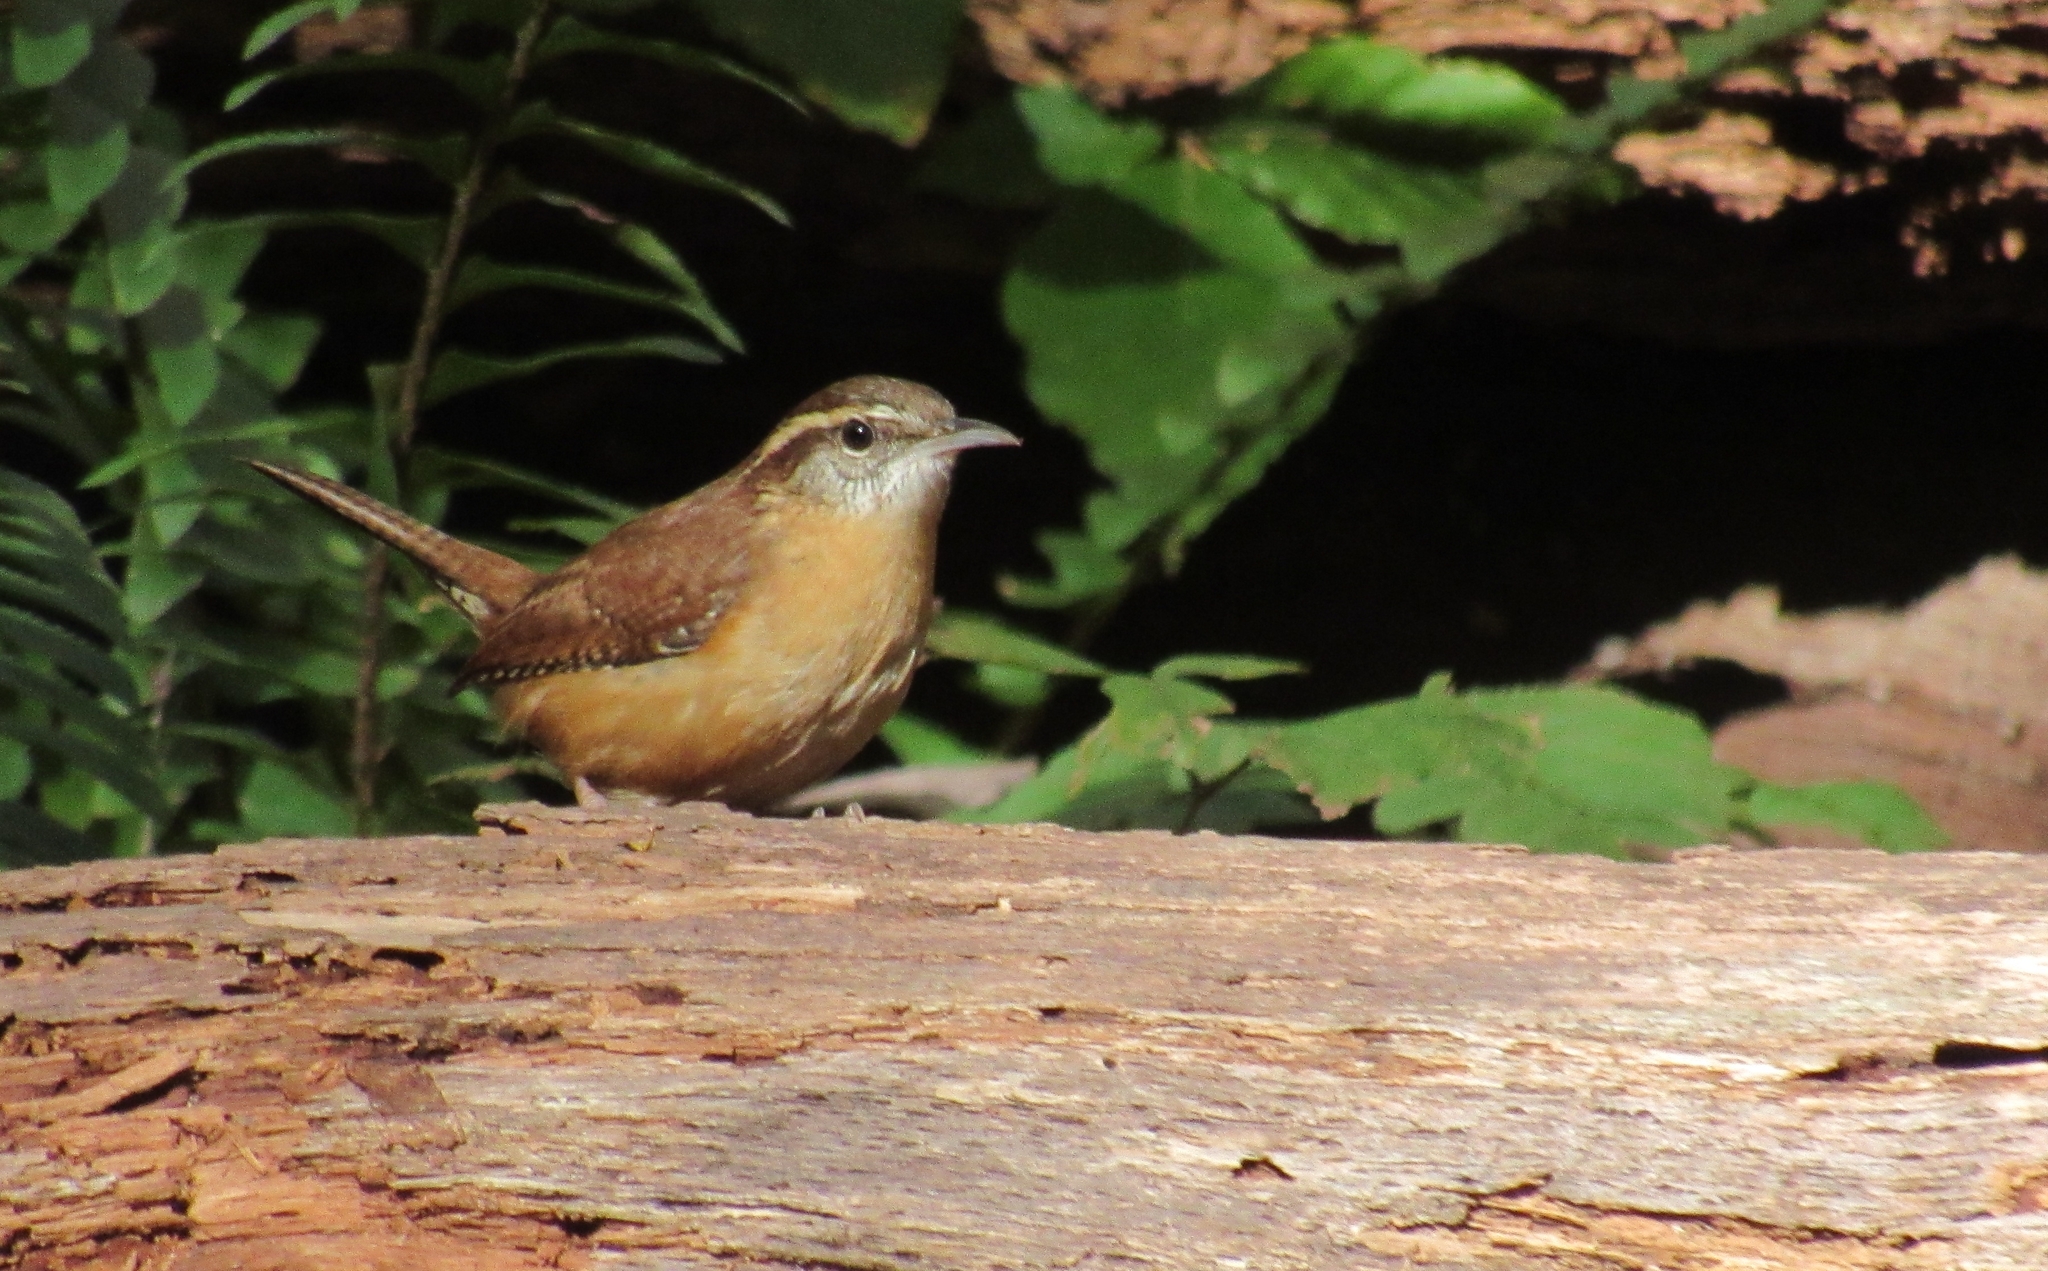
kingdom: Animalia
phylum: Chordata
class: Aves
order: Passeriformes
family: Troglodytidae
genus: Thryothorus
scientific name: Thryothorus ludovicianus
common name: Carolina wren
